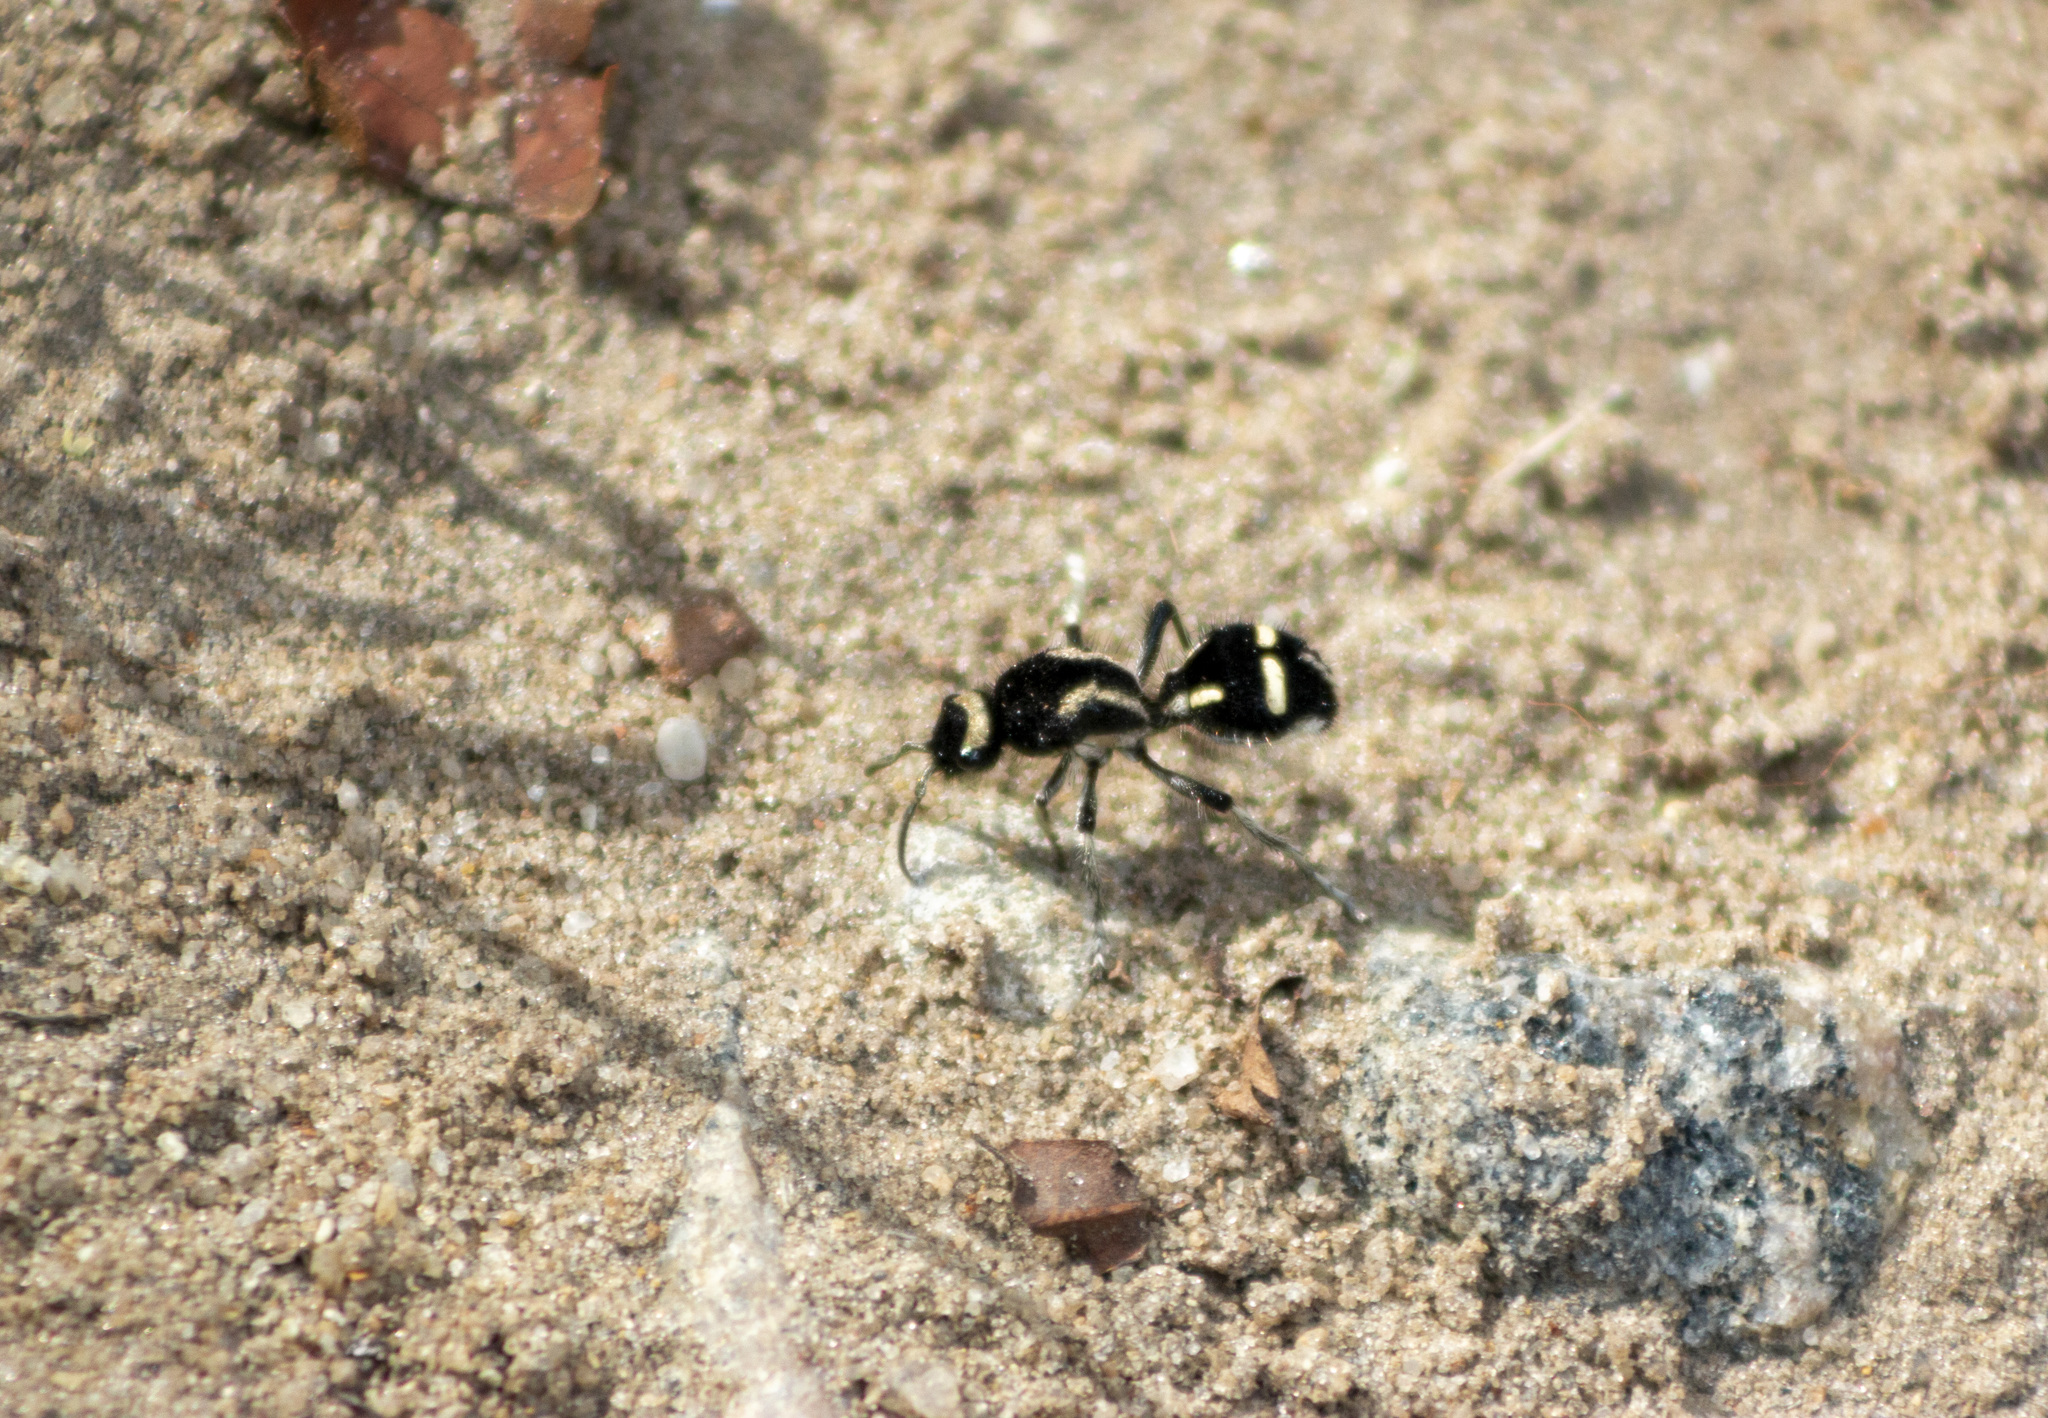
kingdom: Animalia
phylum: Arthropoda
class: Insecta
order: Hymenoptera
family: Mutillidae
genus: Traumatomutilla
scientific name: Traumatomutilla indica
